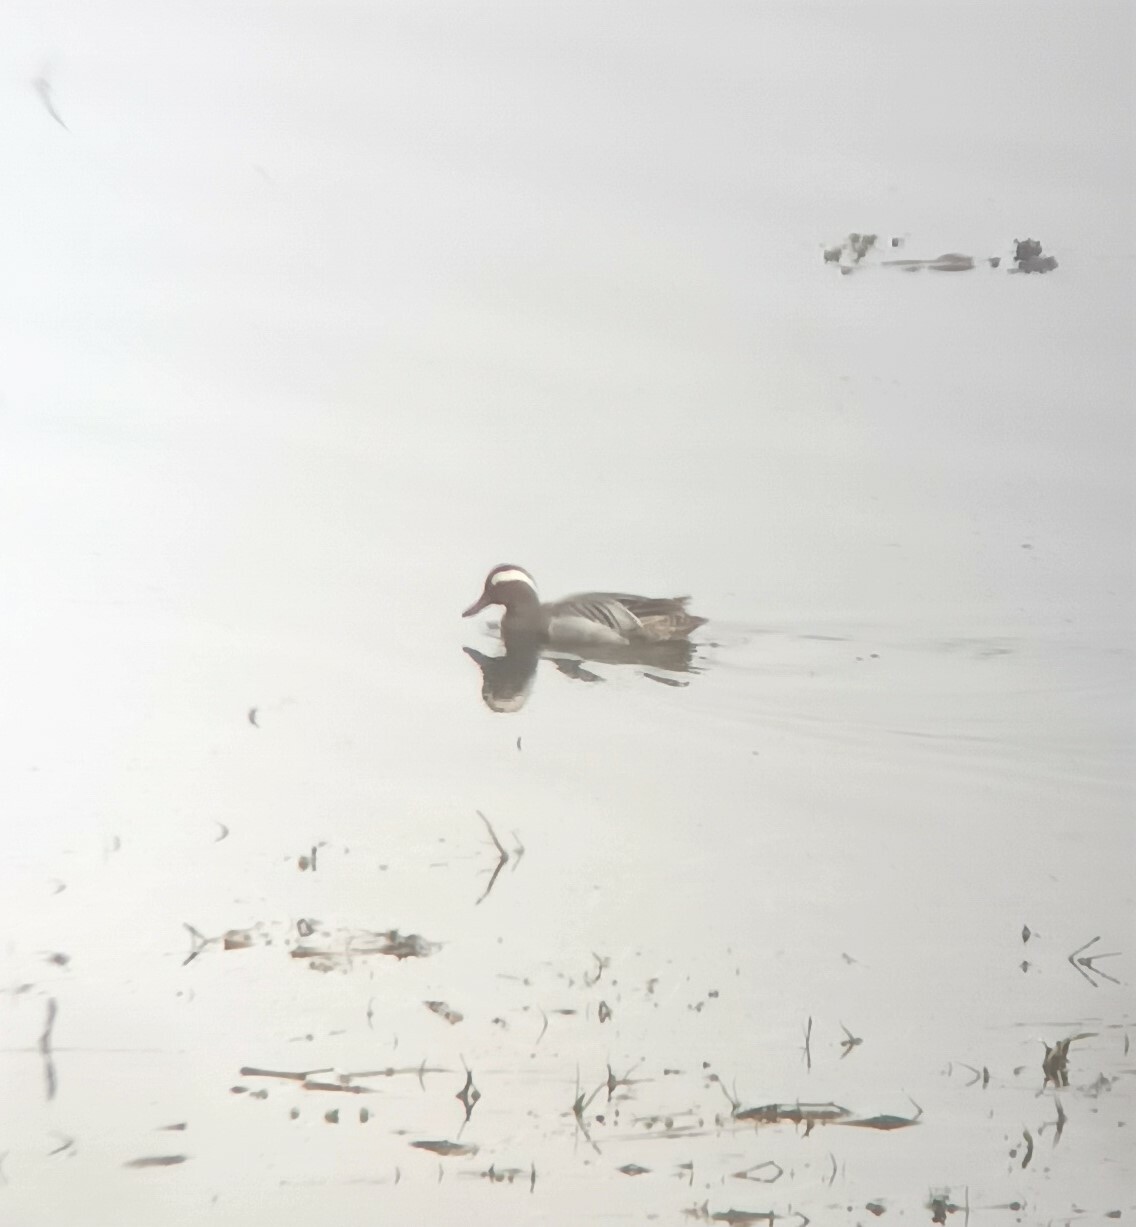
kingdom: Animalia
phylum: Chordata
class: Aves
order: Anseriformes
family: Anatidae
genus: Spatula
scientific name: Spatula querquedula
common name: Garganey
